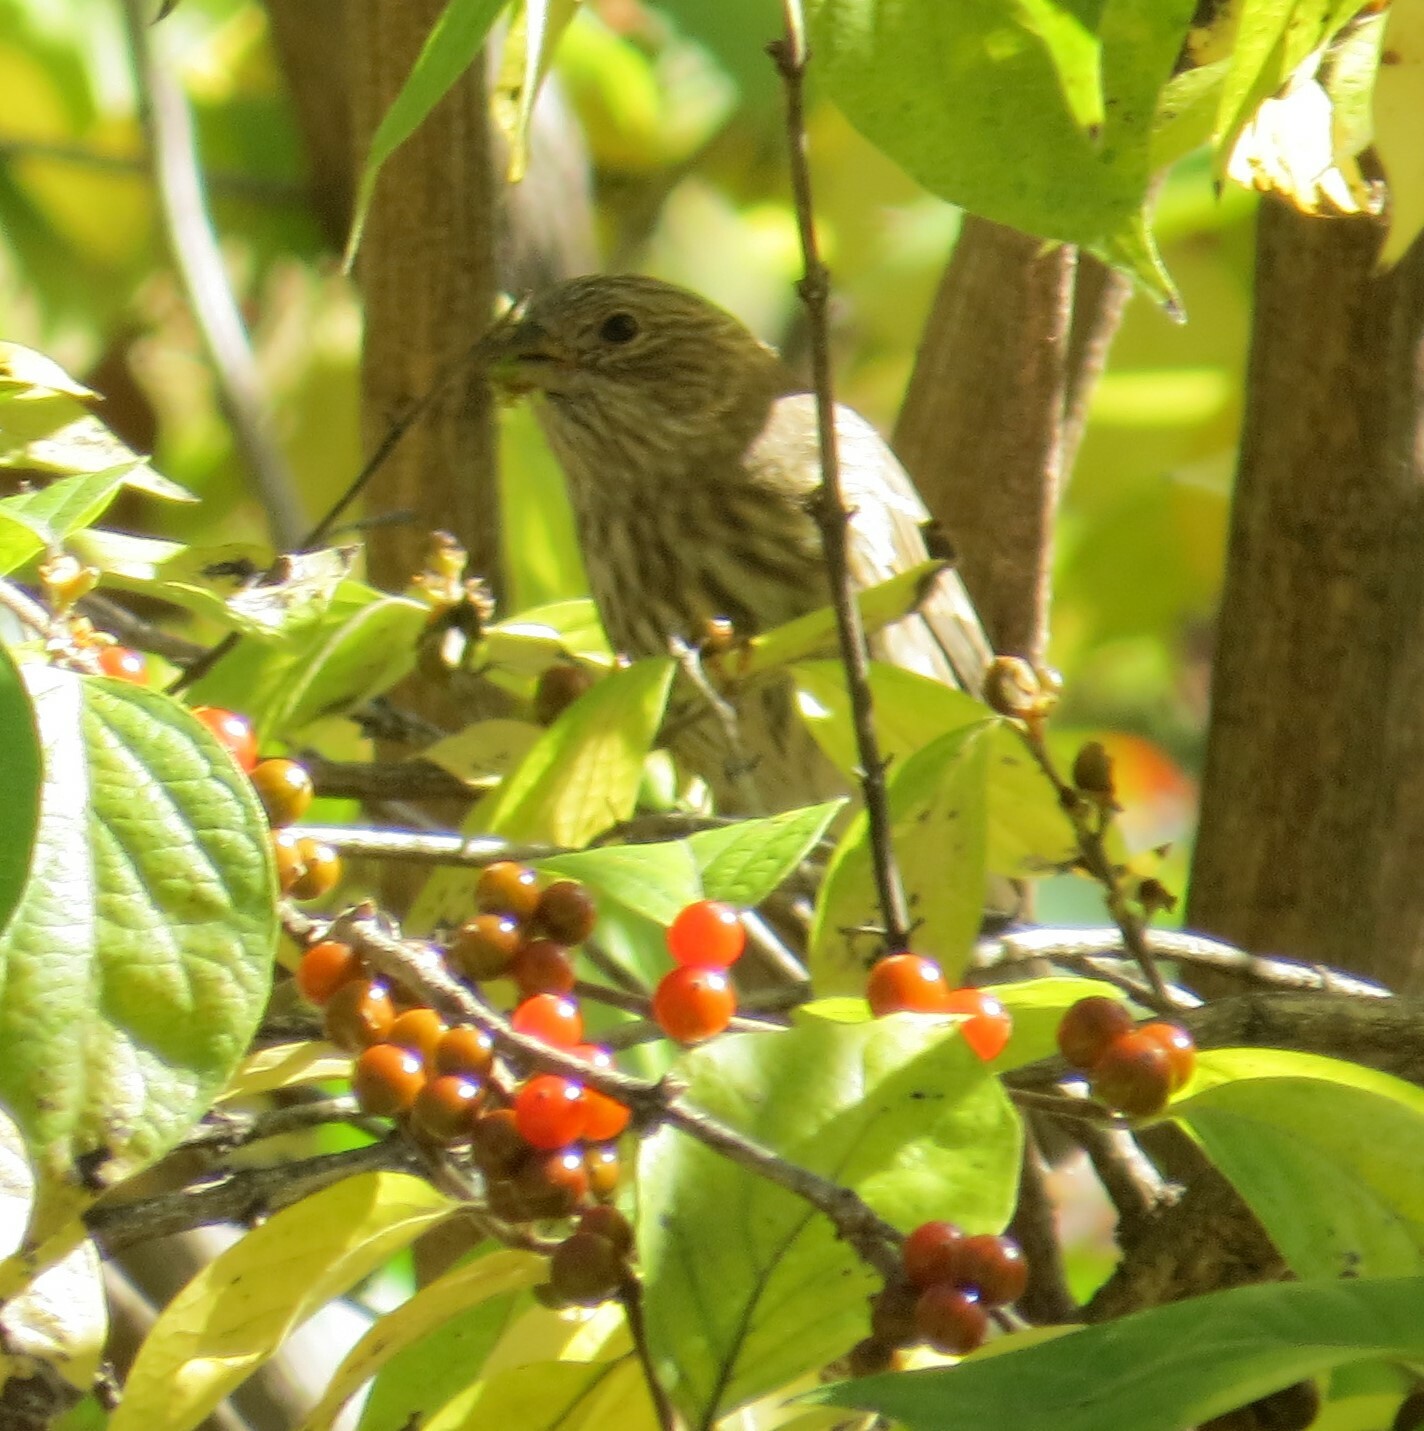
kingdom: Animalia
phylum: Chordata
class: Aves
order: Passeriformes
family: Fringillidae
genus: Haemorhous
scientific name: Haemorhous mexicanus
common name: House finch
